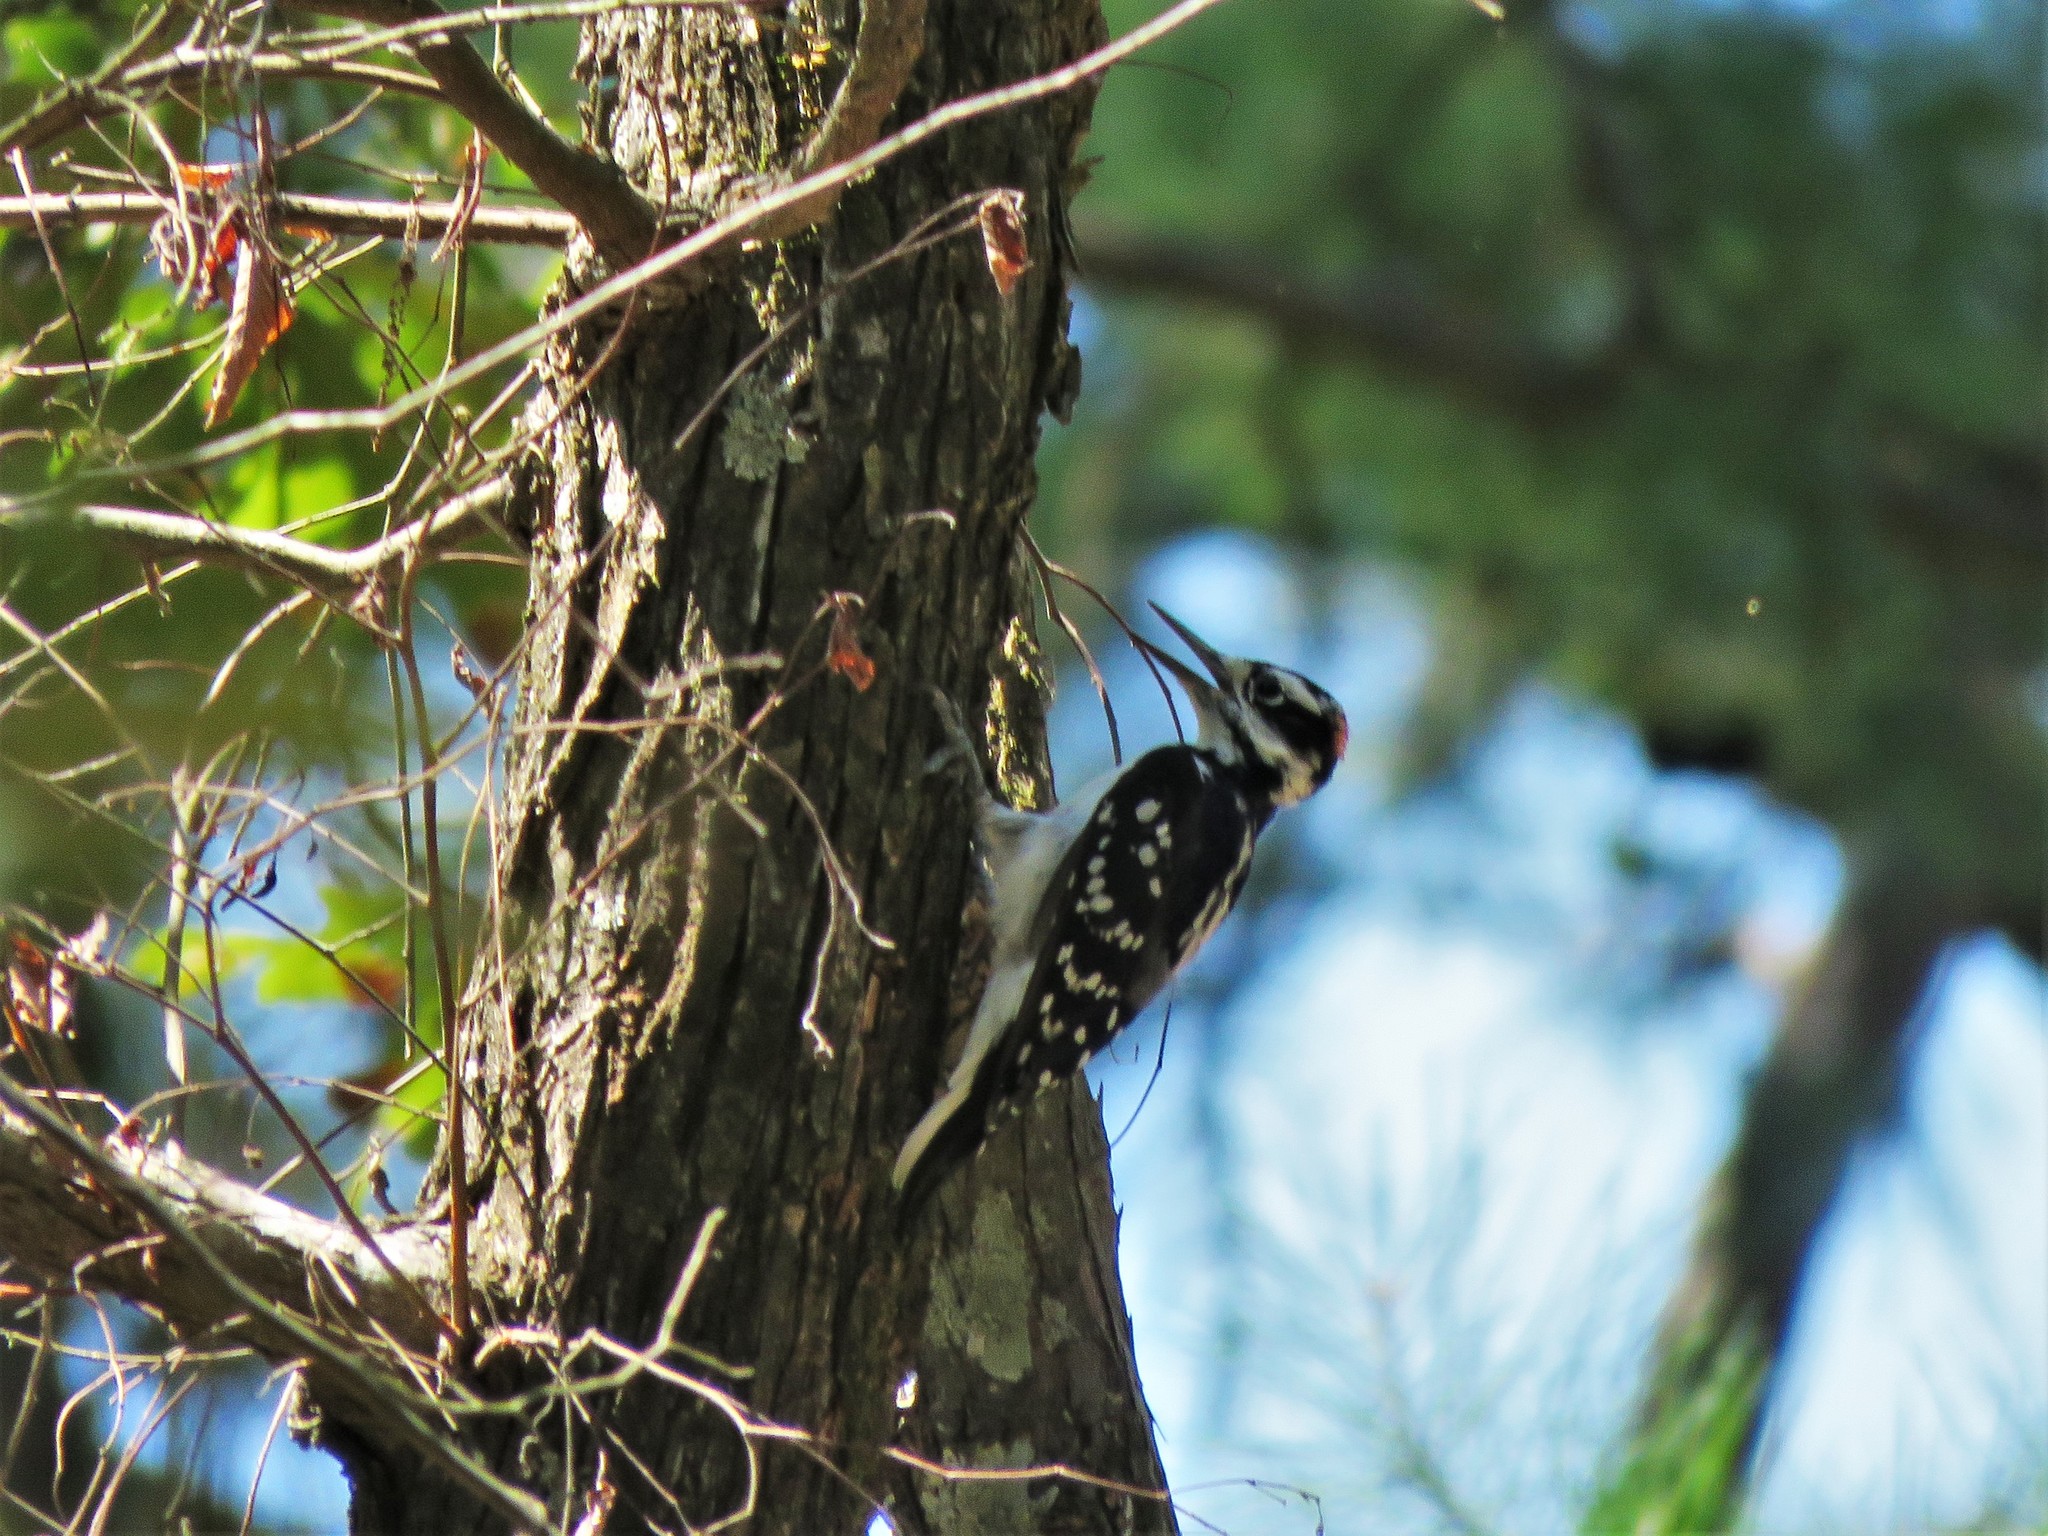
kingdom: Animalia
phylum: Chordata
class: Aves
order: Piciformes
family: Picidae
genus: Leuconotopicus
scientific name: Leuconotopicus villosus
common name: Hairy woodpecker
